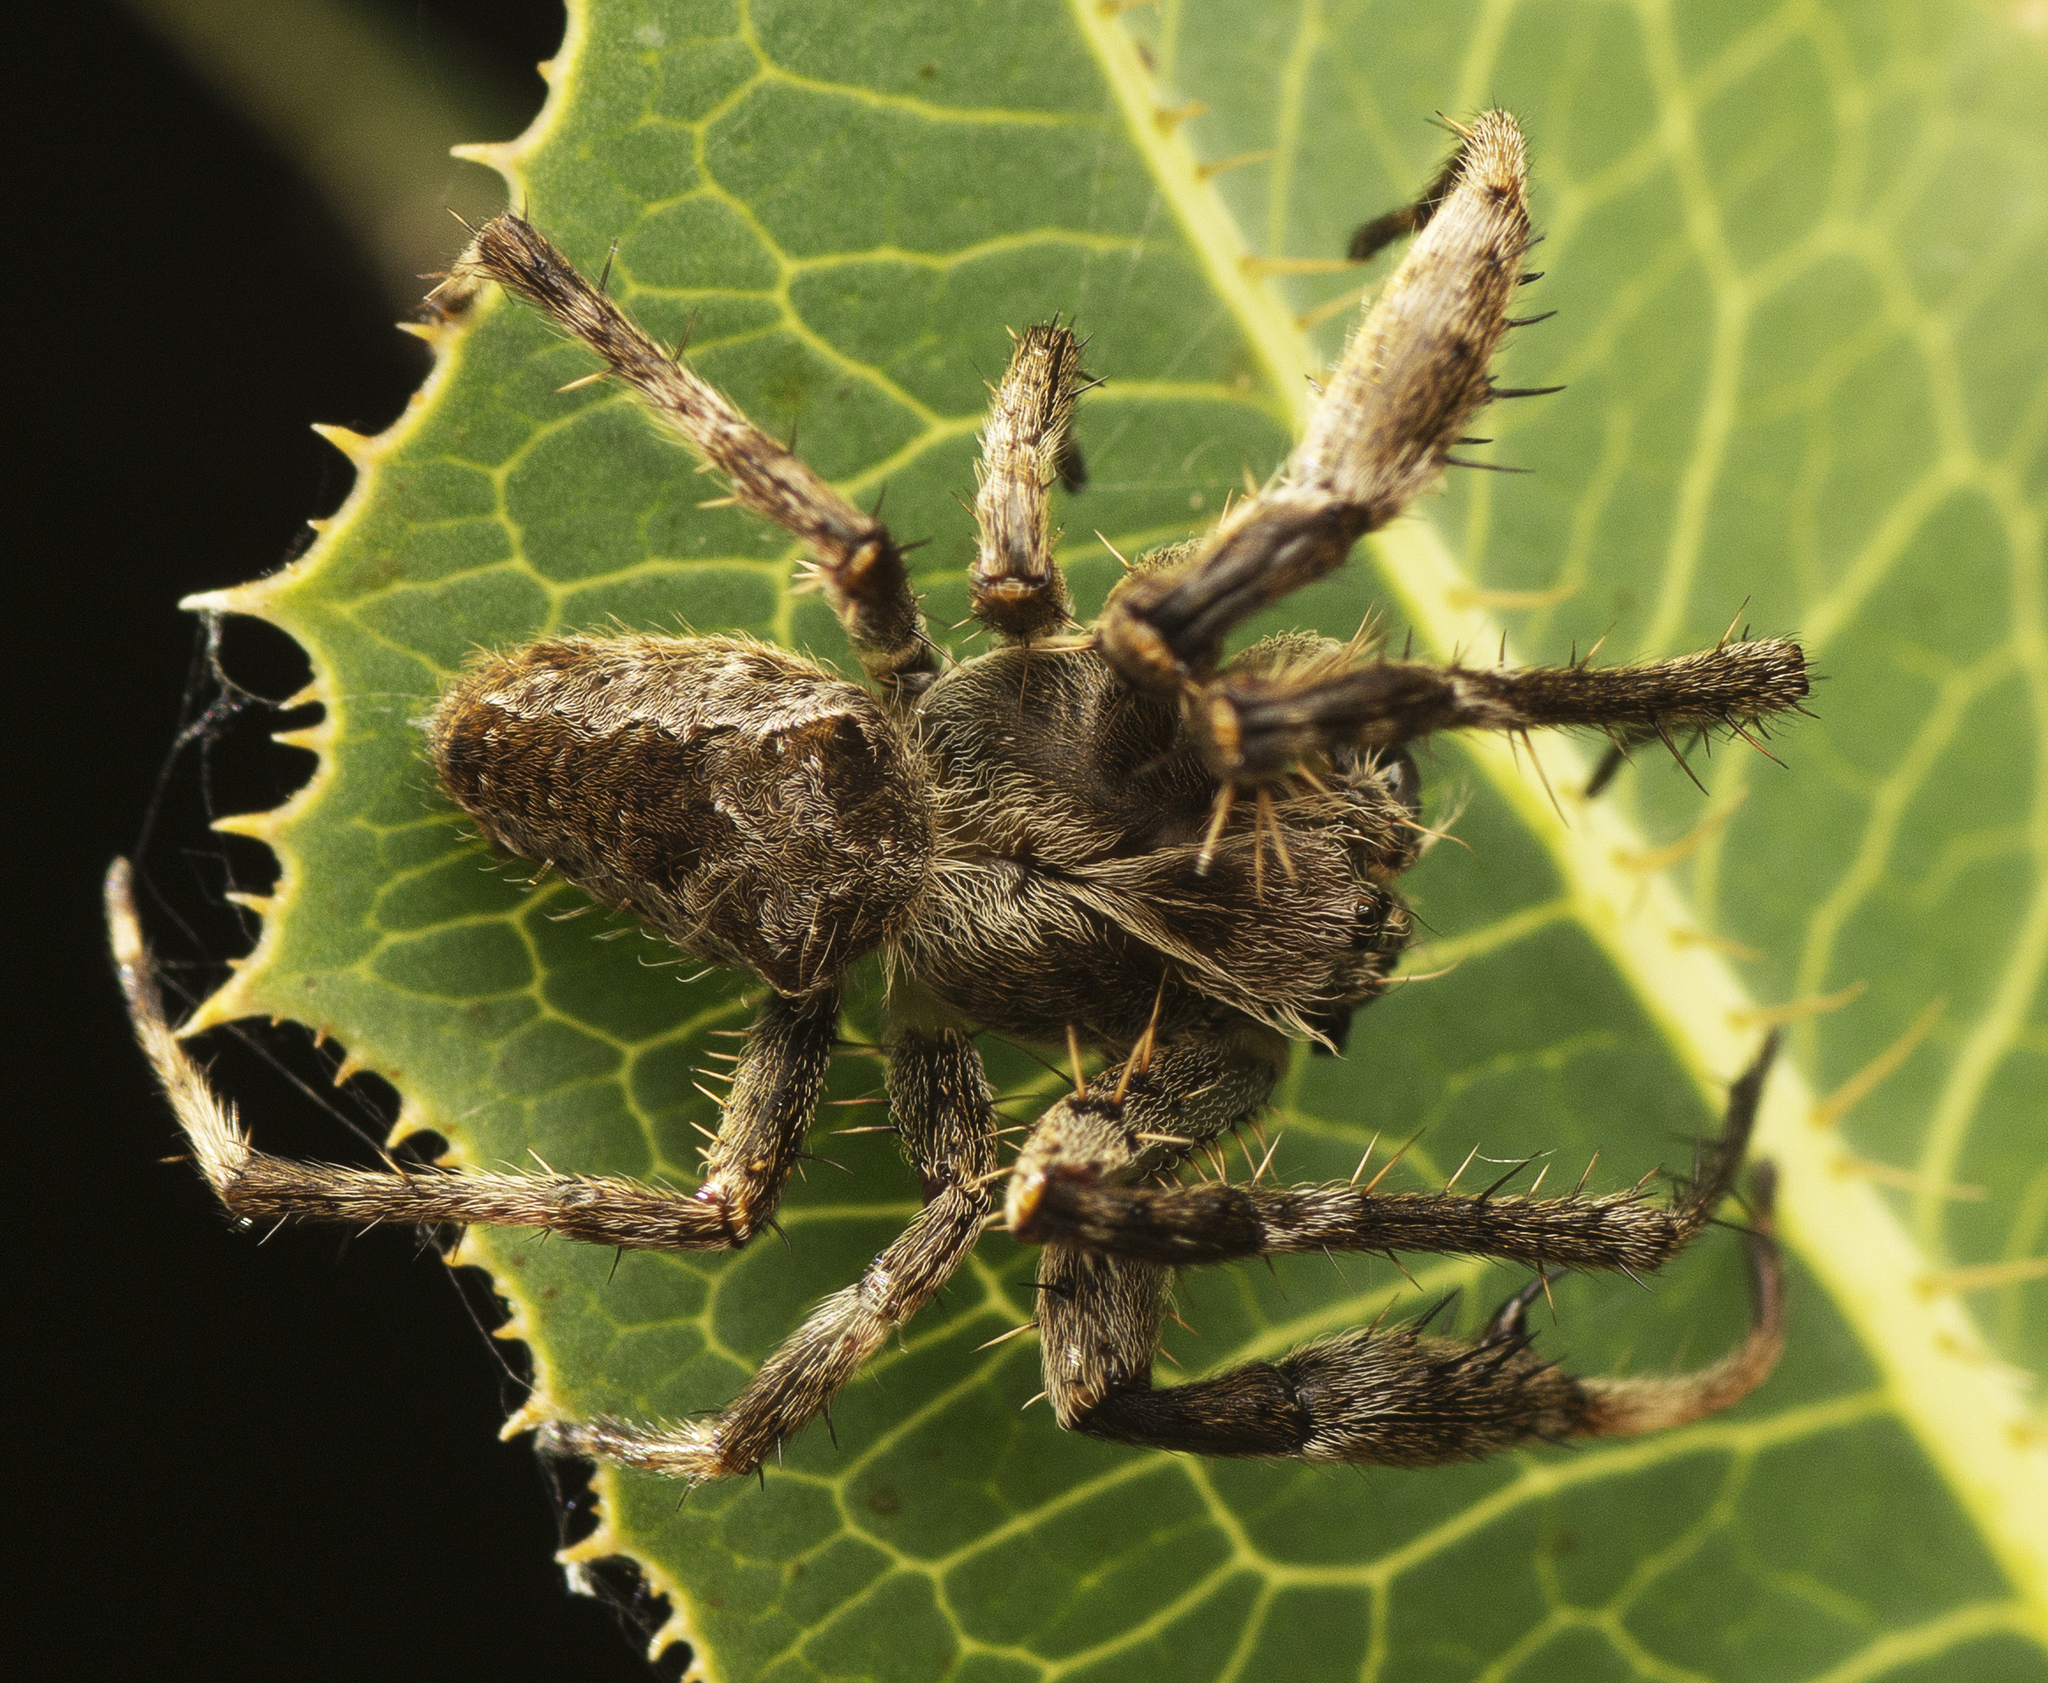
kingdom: Animalia
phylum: Arthropoda
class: Arachnida
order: Araneae
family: Araneidae
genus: Hortophora
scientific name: Hortophora
